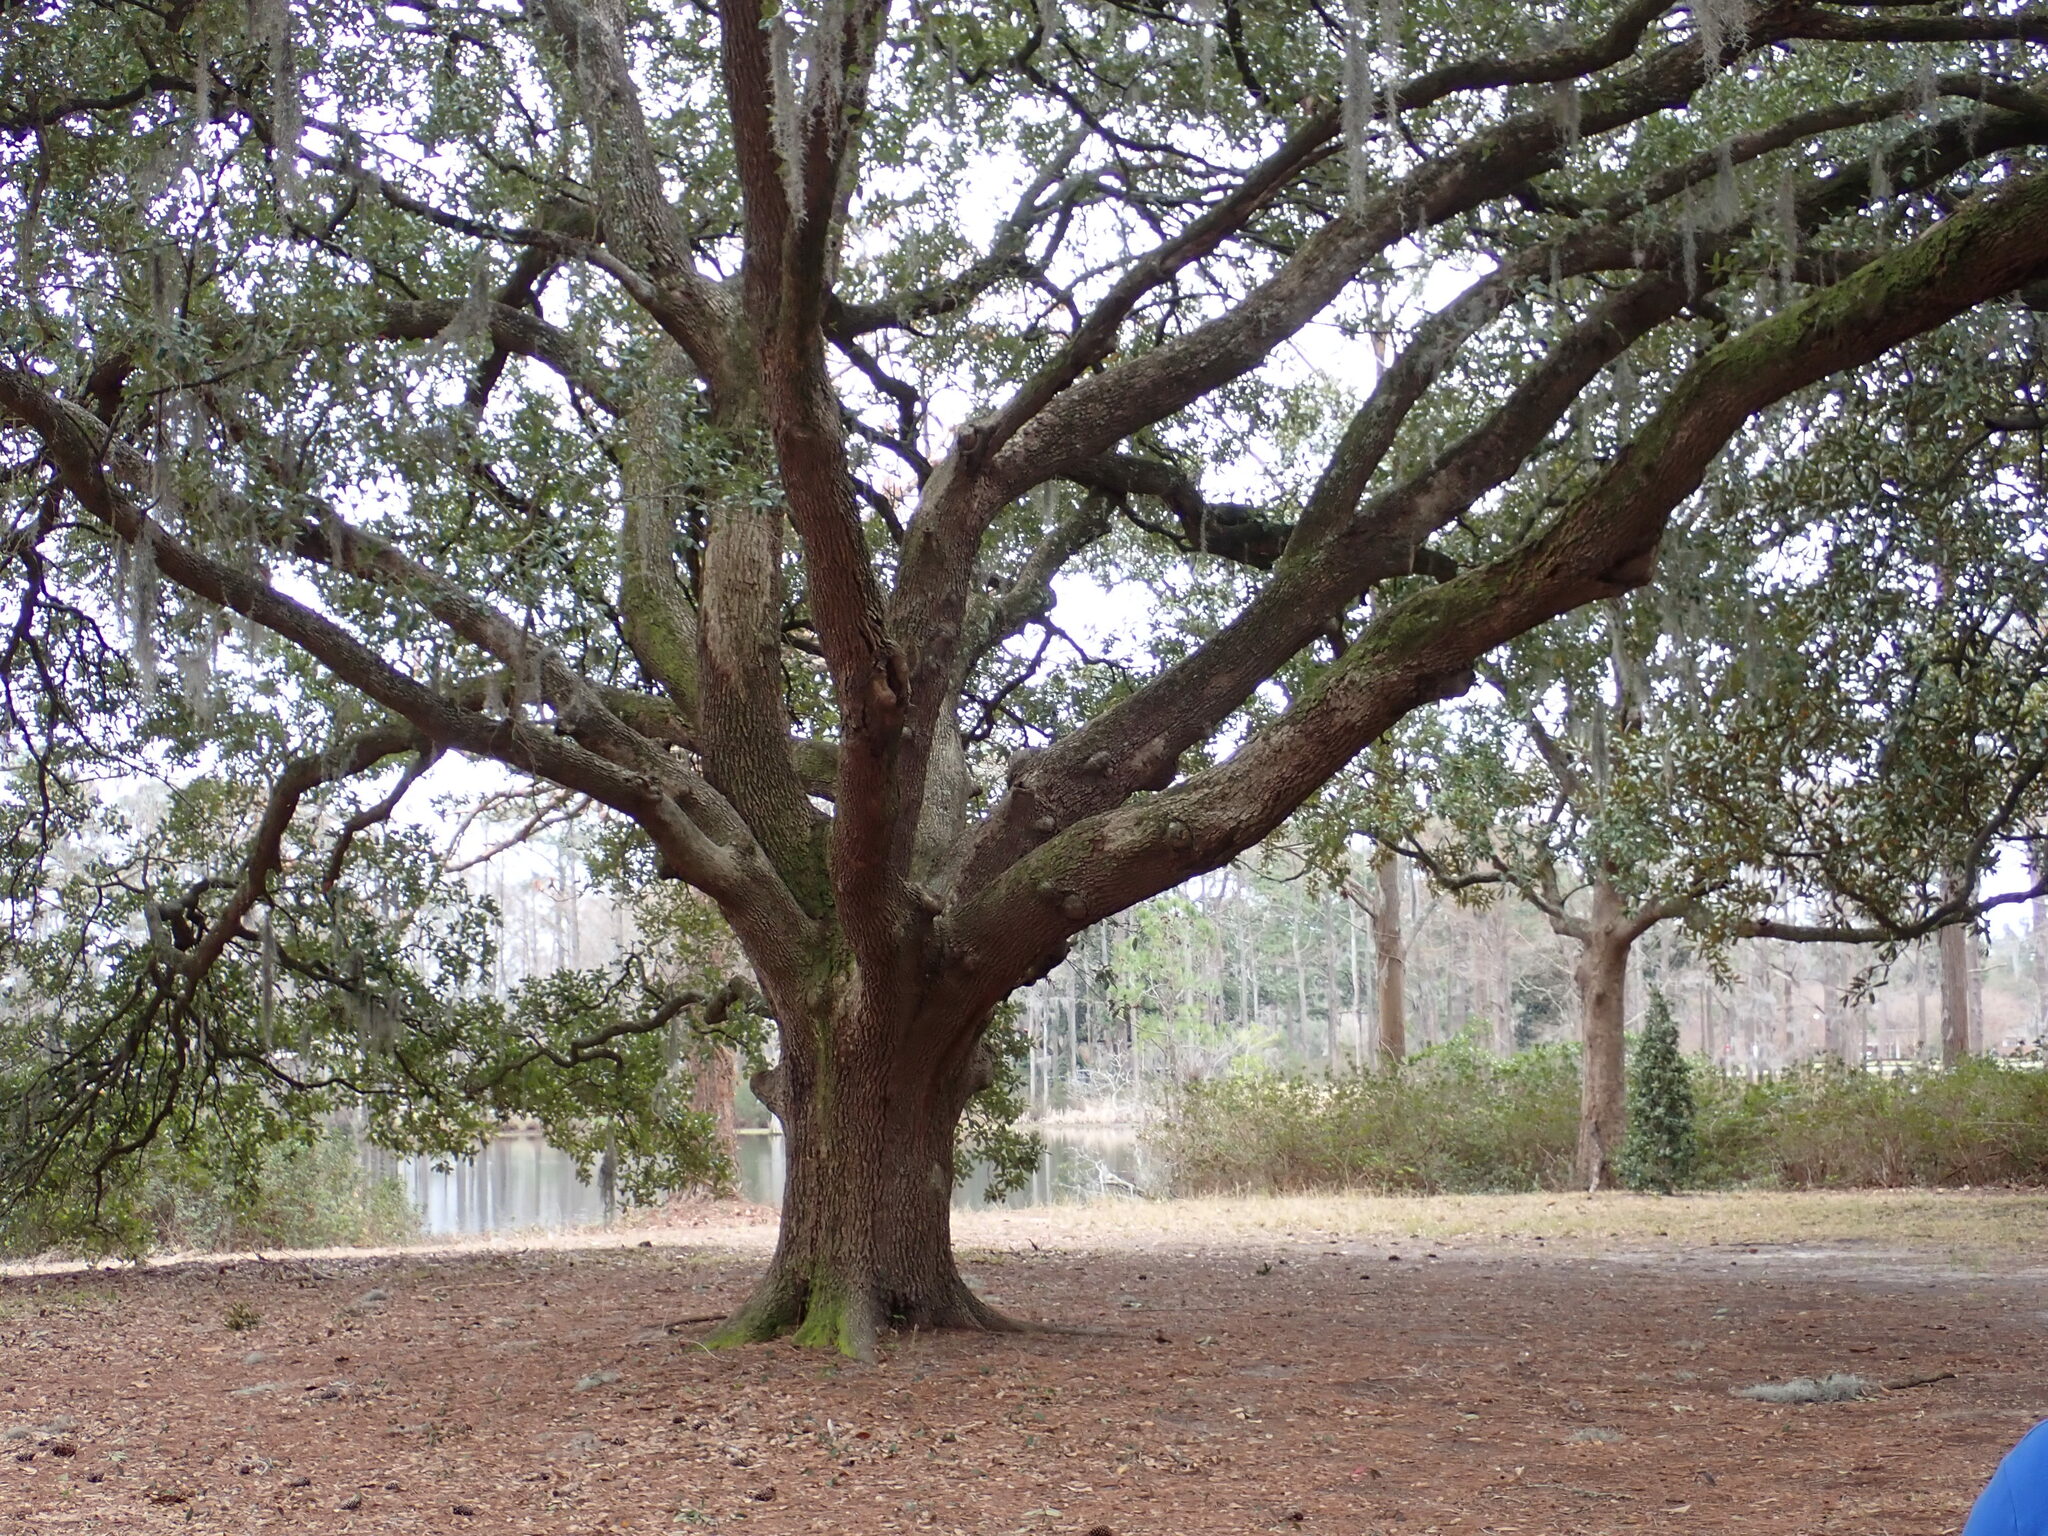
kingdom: Plantae
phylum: Tracheophyta
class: Magnoliopsida
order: Fagales
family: Fagaceae
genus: Quercus
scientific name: Quercus virginiana
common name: Southern live oak
